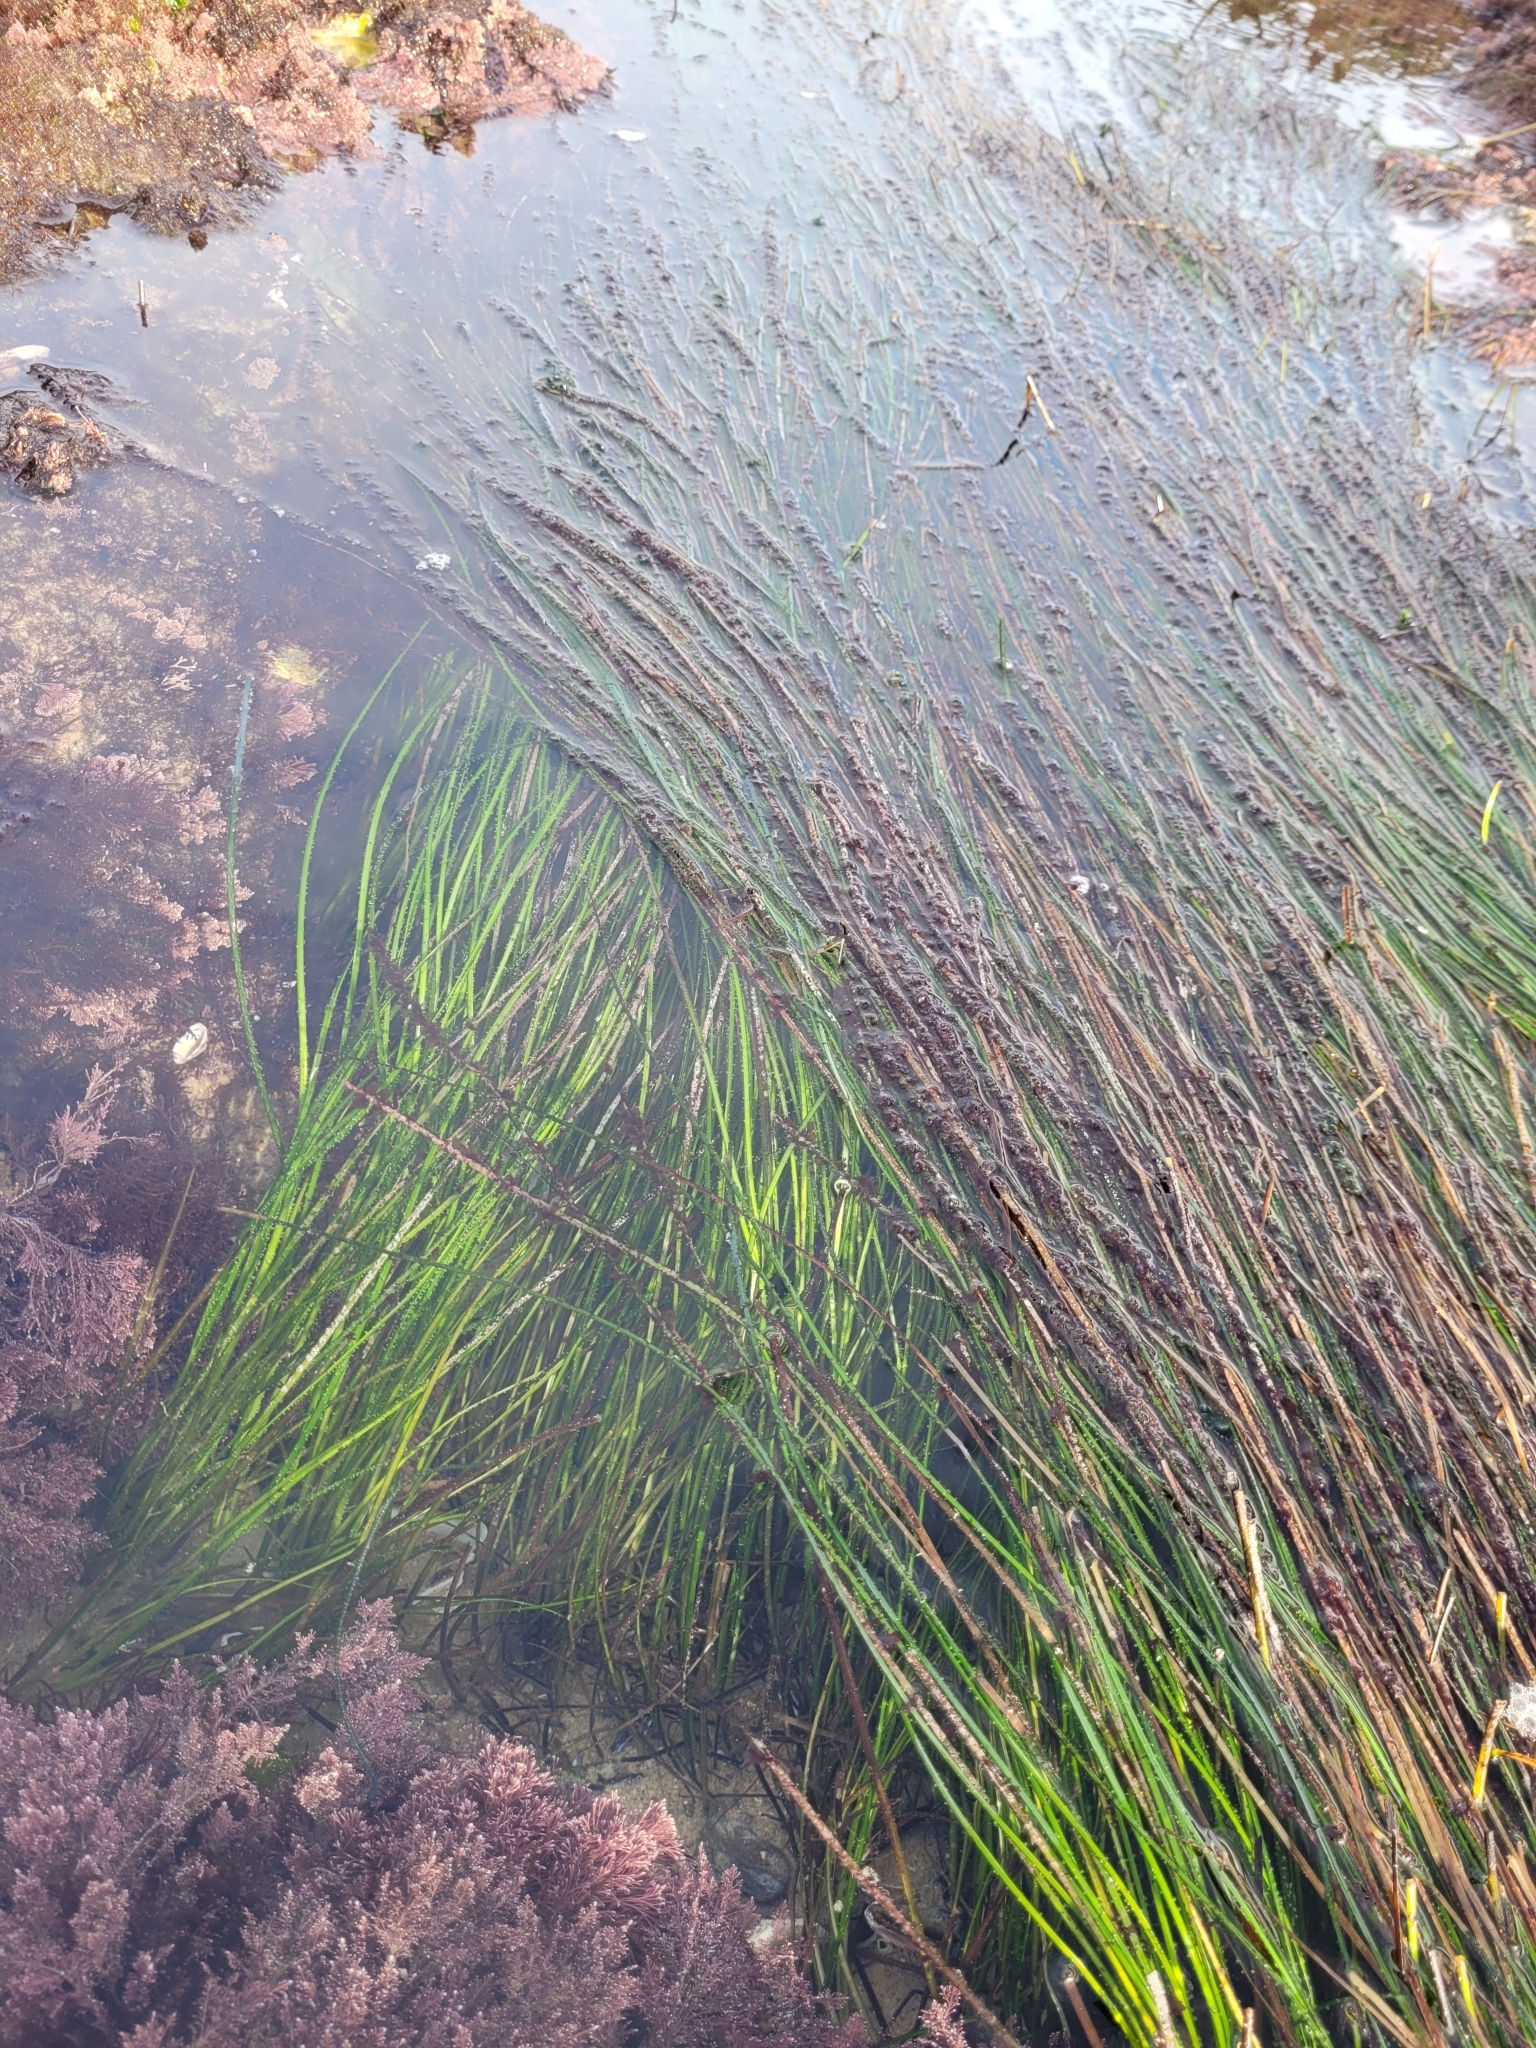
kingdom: Plantae
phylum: Tracheophyta
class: Liliopsida
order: Alismatales
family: Zosteraceae
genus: Phyllospadix
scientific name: Phyllospadix torreyi
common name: Surfgrass
